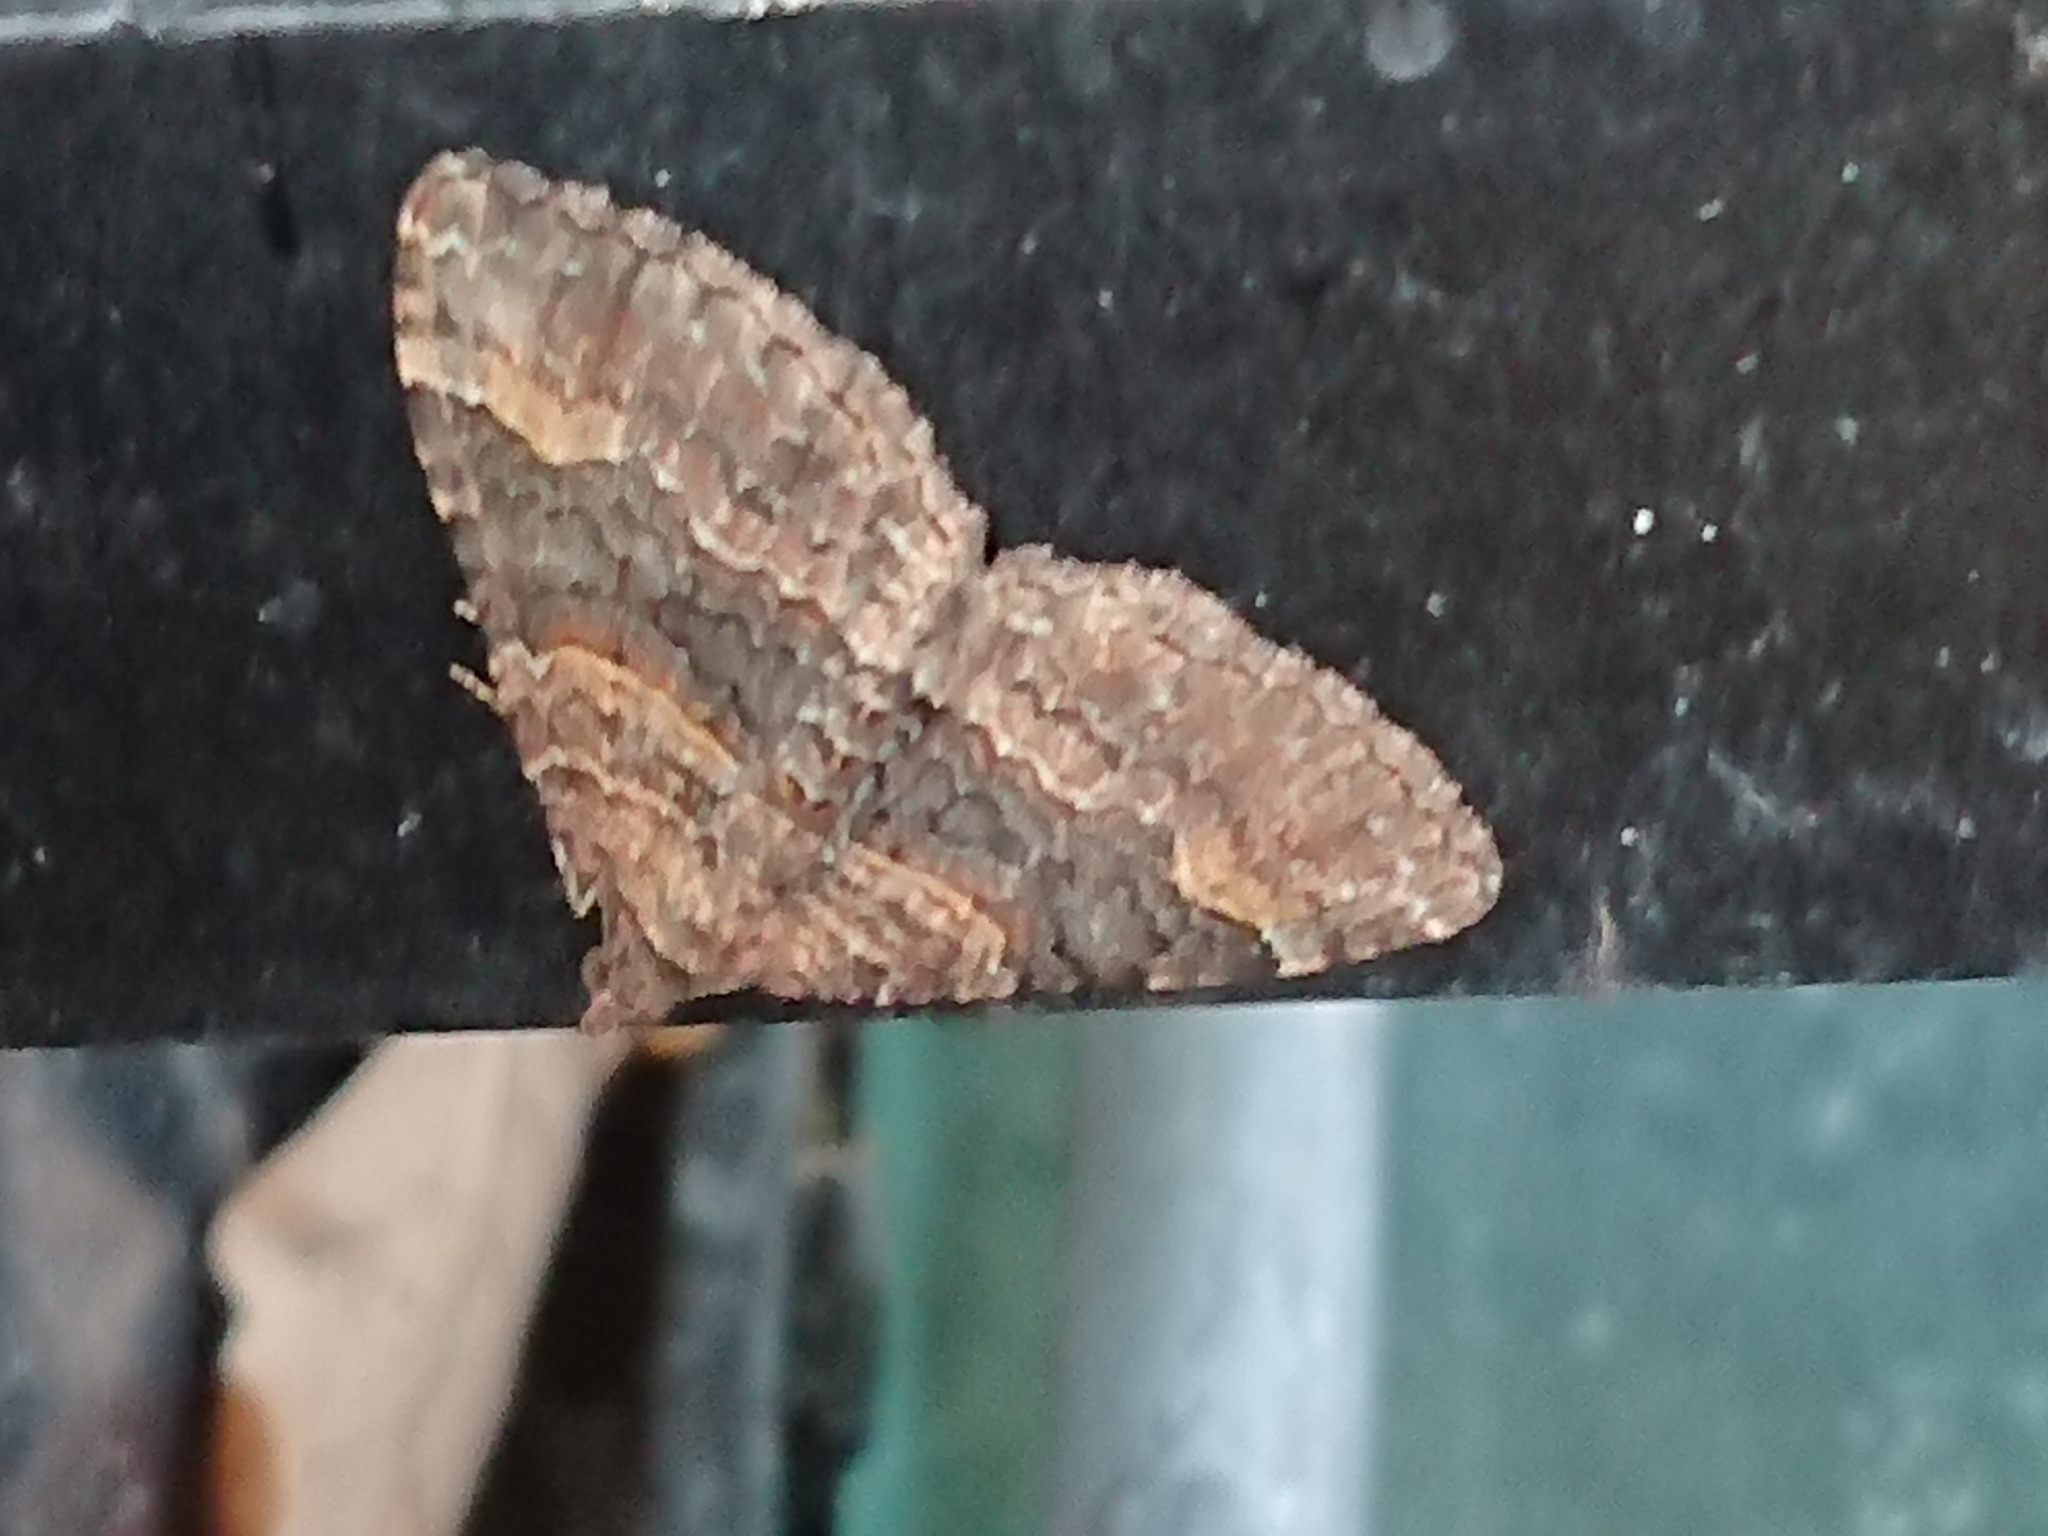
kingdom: Animalia
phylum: Arthropoda
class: Insecta
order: Lepidoptera
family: Geometridae
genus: Epyaxa
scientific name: Epyaxa lucidata
